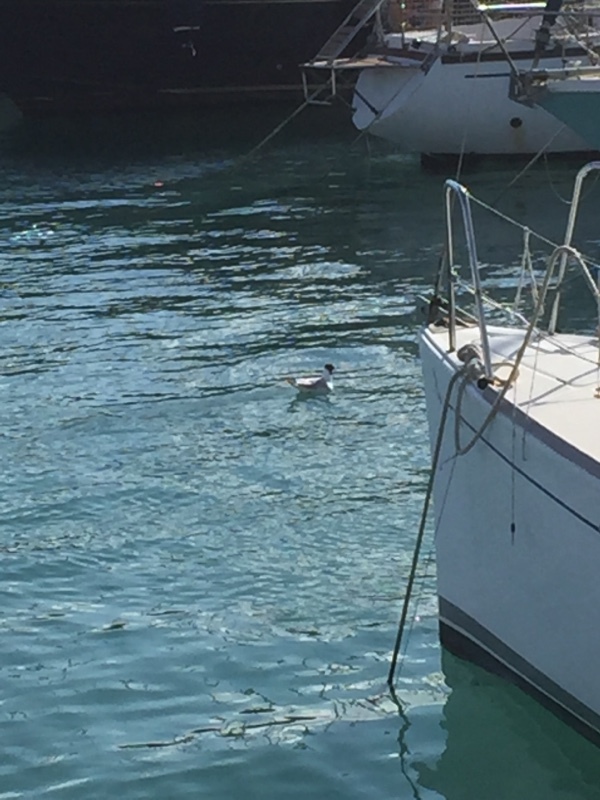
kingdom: Animalia
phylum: Chordata
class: Aves
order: Charadriiformes
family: Laridae
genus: Ichthyaetus
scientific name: Ichthyaetus melanocephalus
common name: Mediterranean gull
